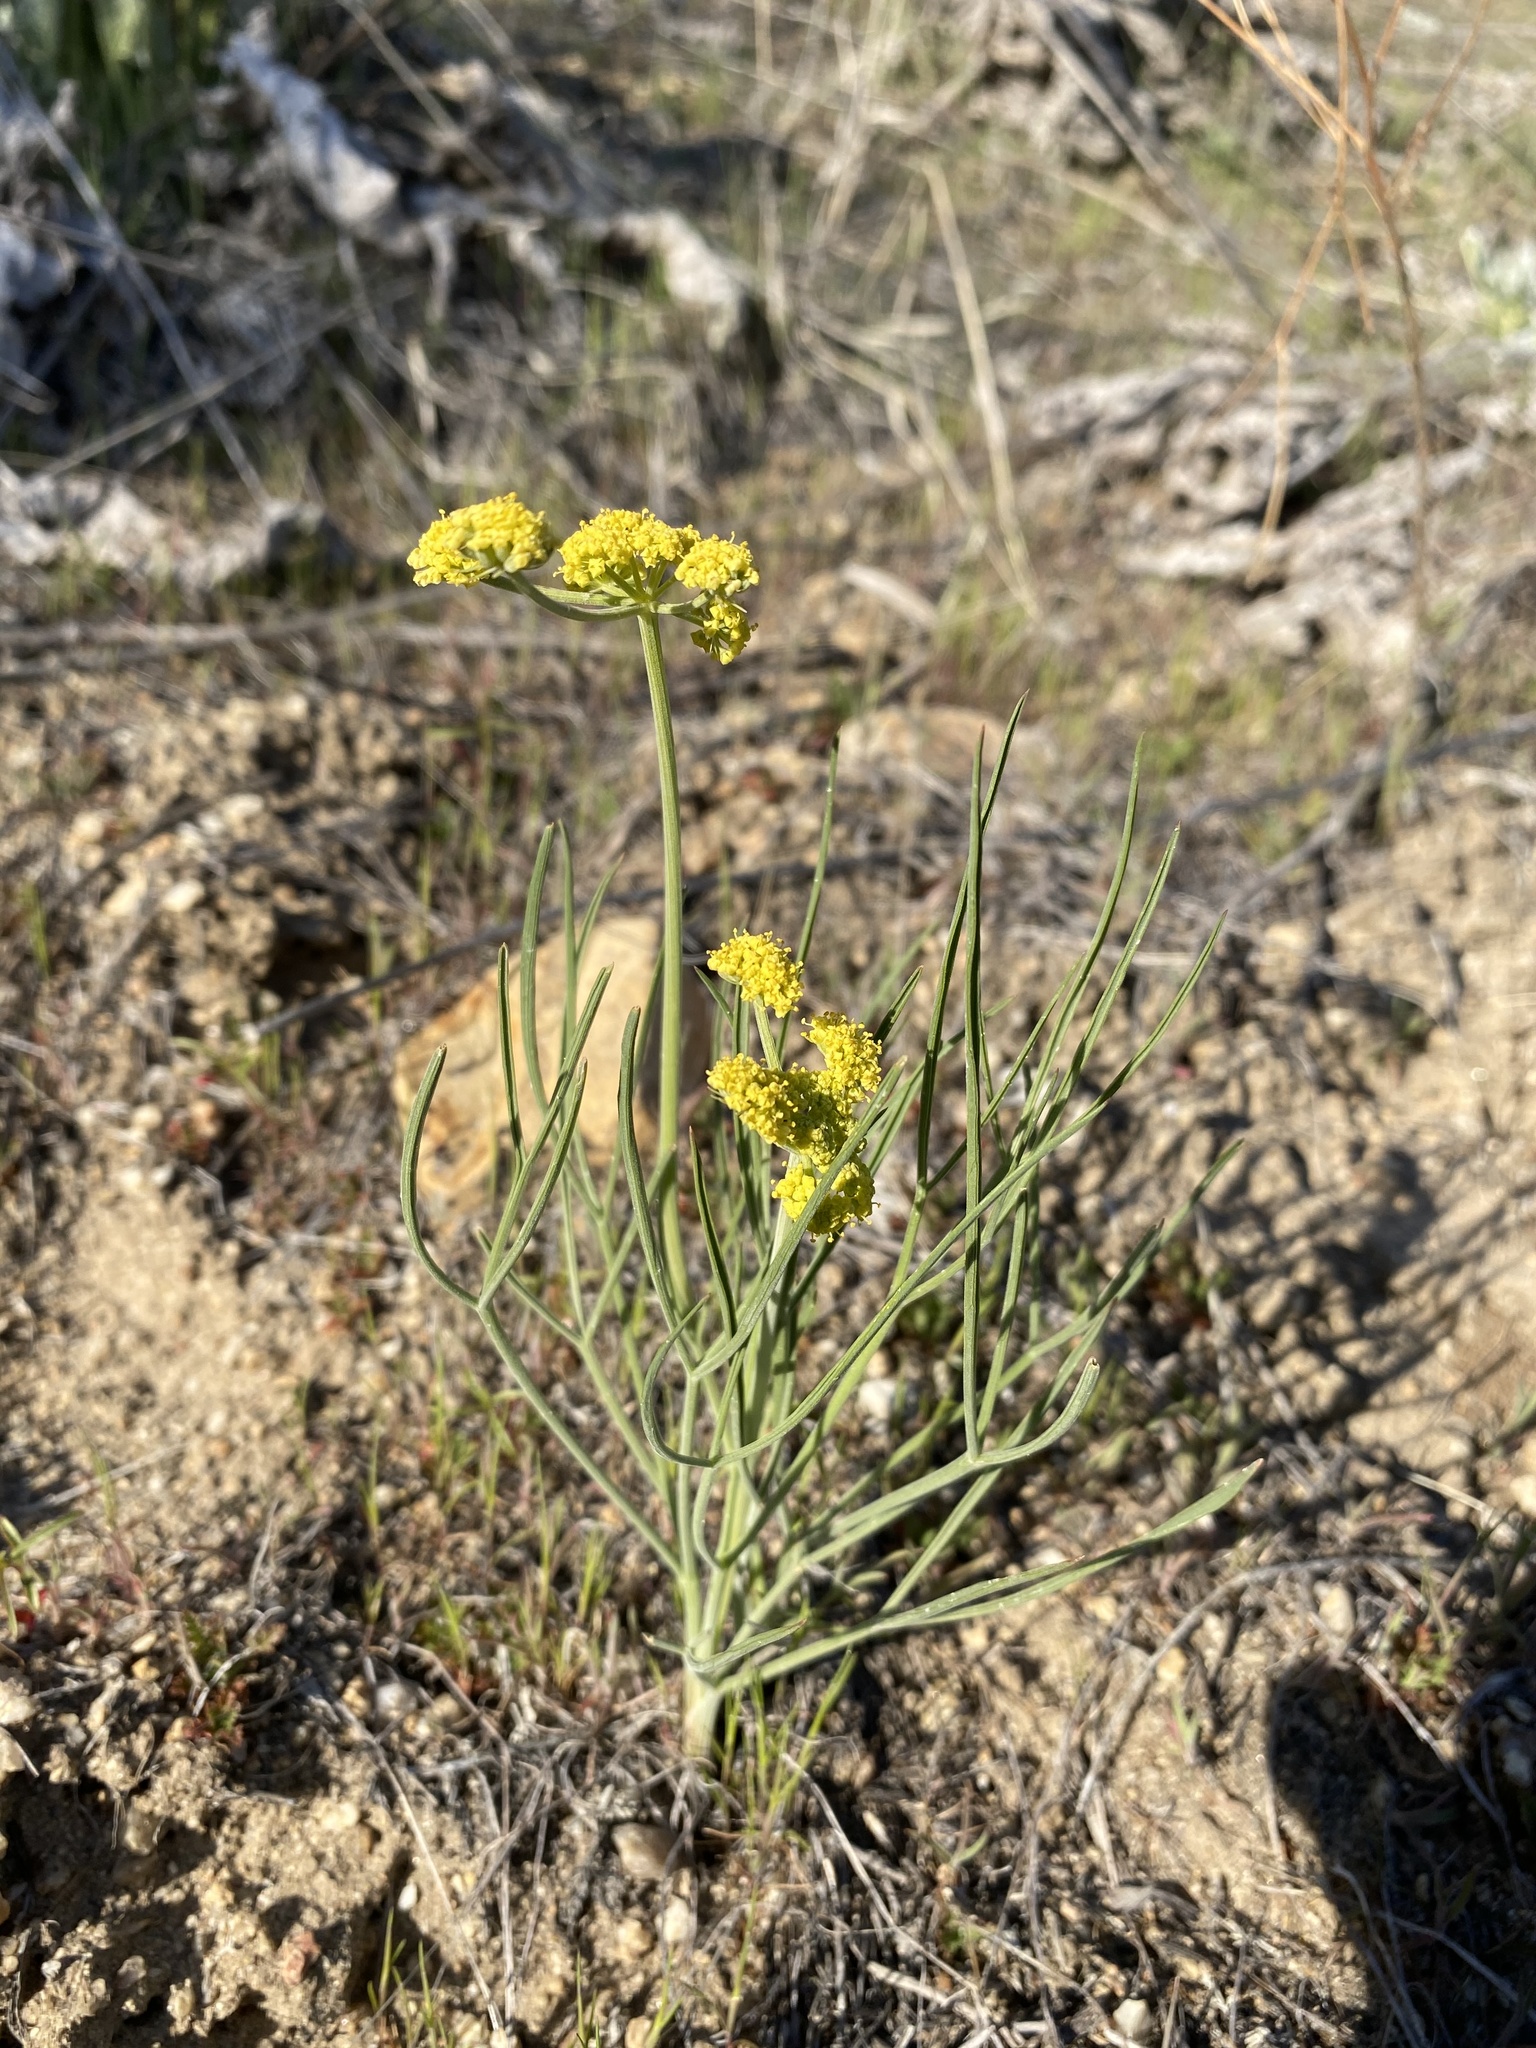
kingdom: Plantae
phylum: Tracheophyta
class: Magnoliopsida
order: Apiales
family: Apiaceae
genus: Lomatium
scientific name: Lomatium triternatum
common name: Ternate lomatium
